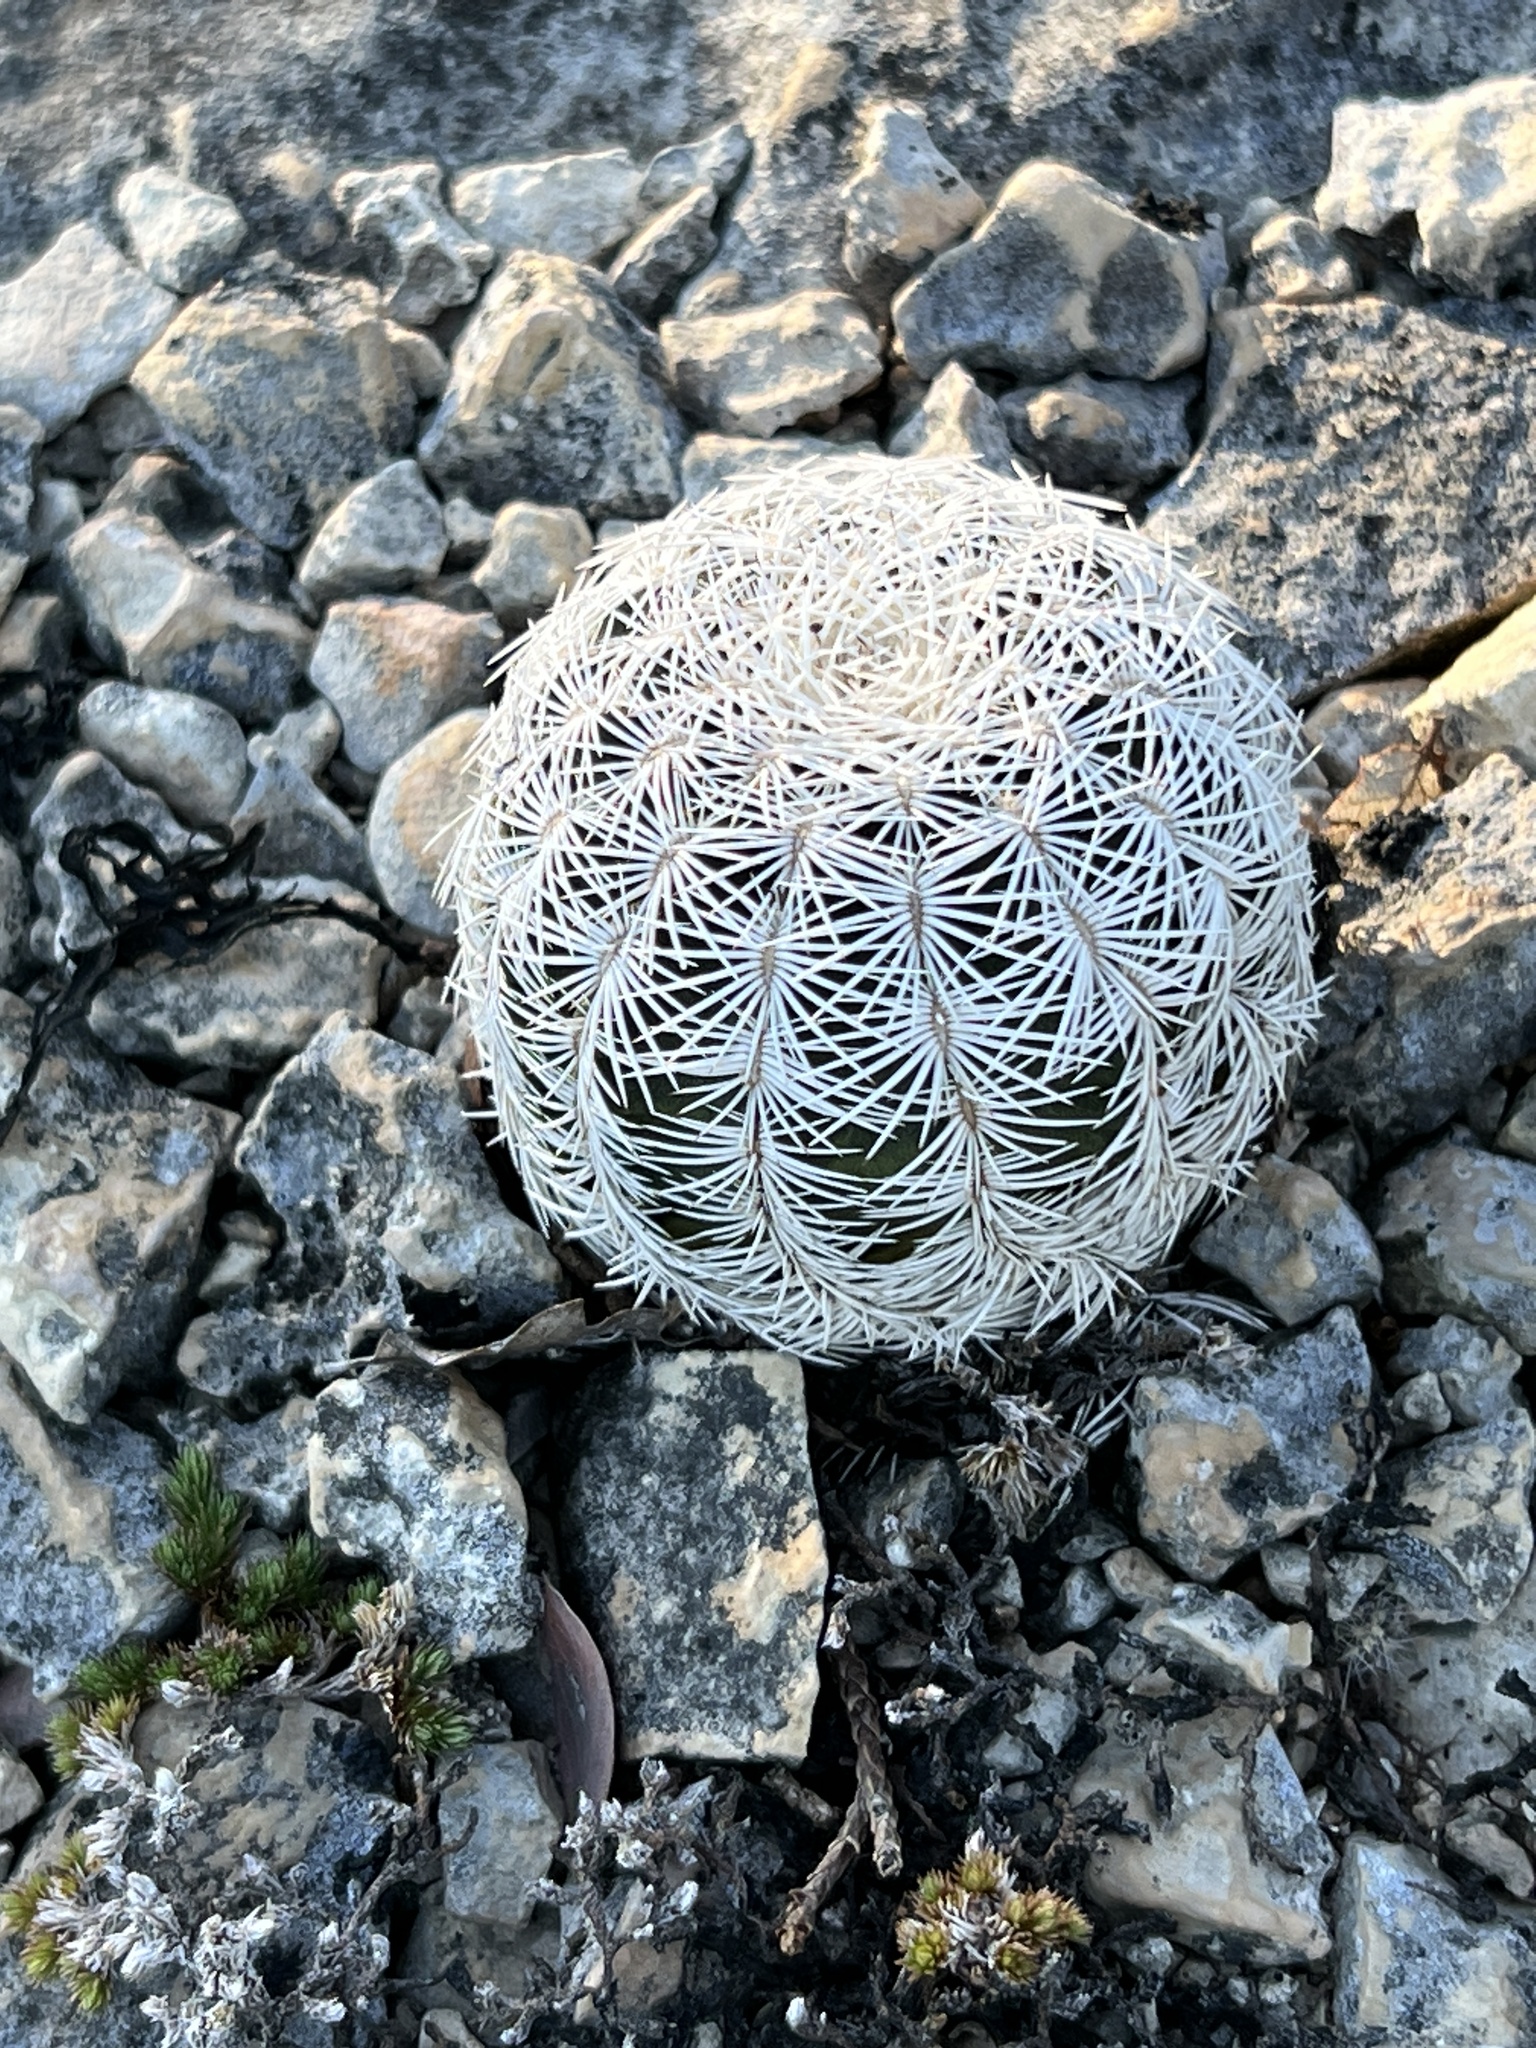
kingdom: Plantae
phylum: Tracheophyta
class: Magnoliopsida
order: Caryophyllales
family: Cactaceae
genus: Echinocereus
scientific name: Echinocereus reichenbachii
